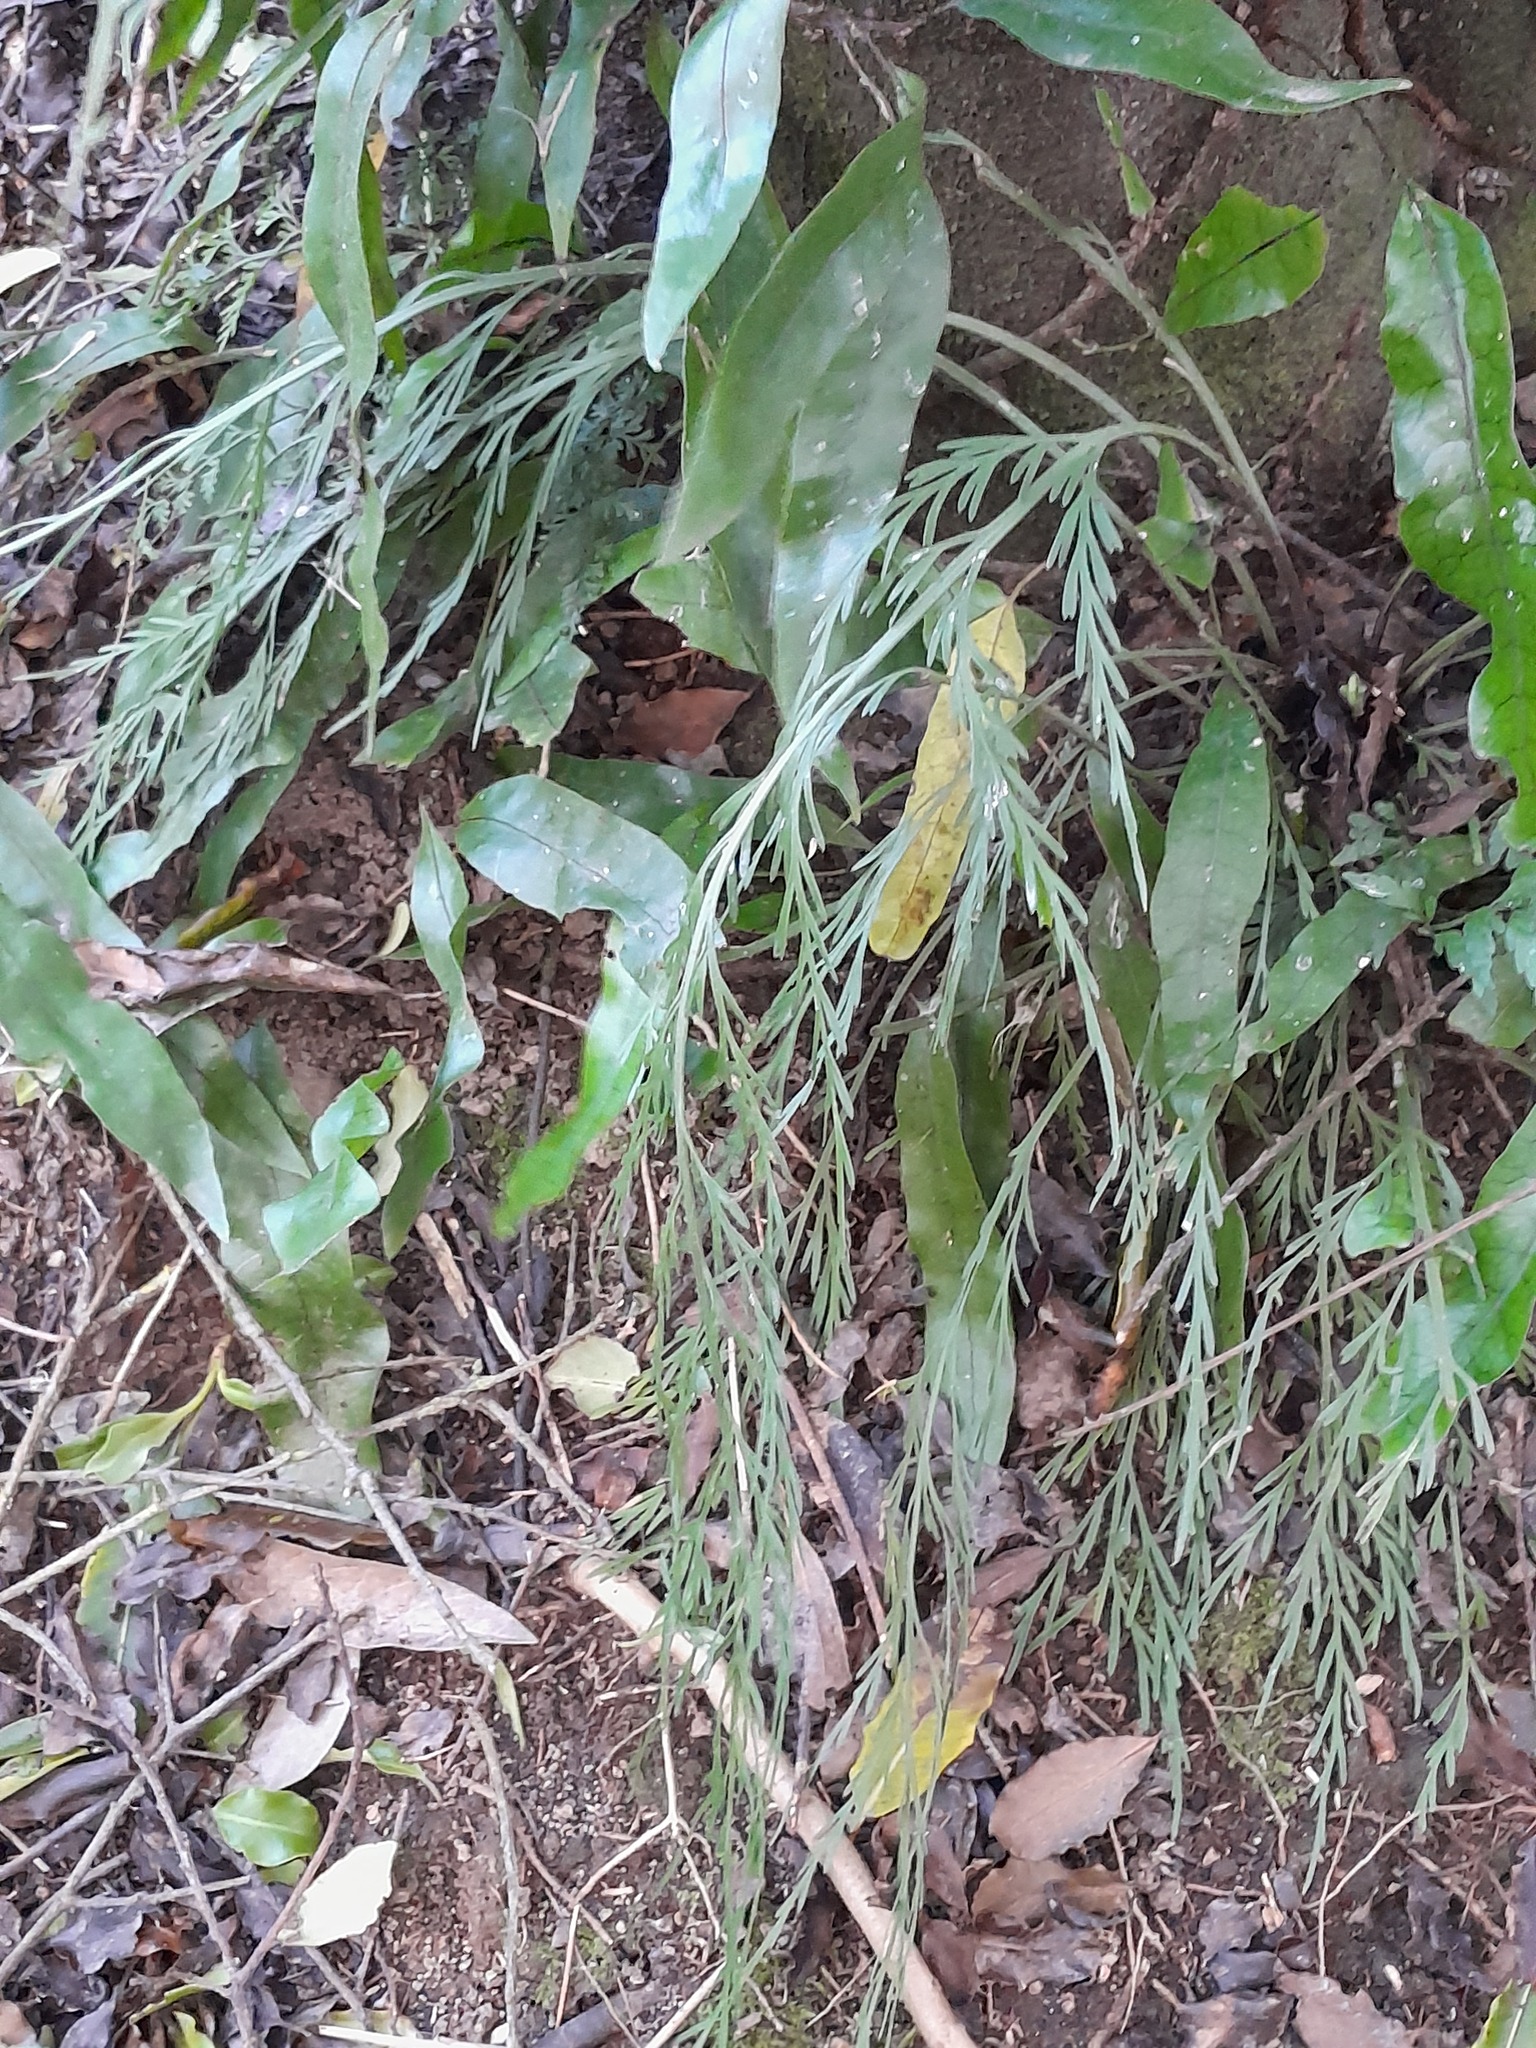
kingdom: Plantae
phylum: Tracheophyta
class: Polypodiopsida
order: Polypodiales
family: Polypodiaceae
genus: Lecanopteris
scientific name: Lecanopteris pustulata
